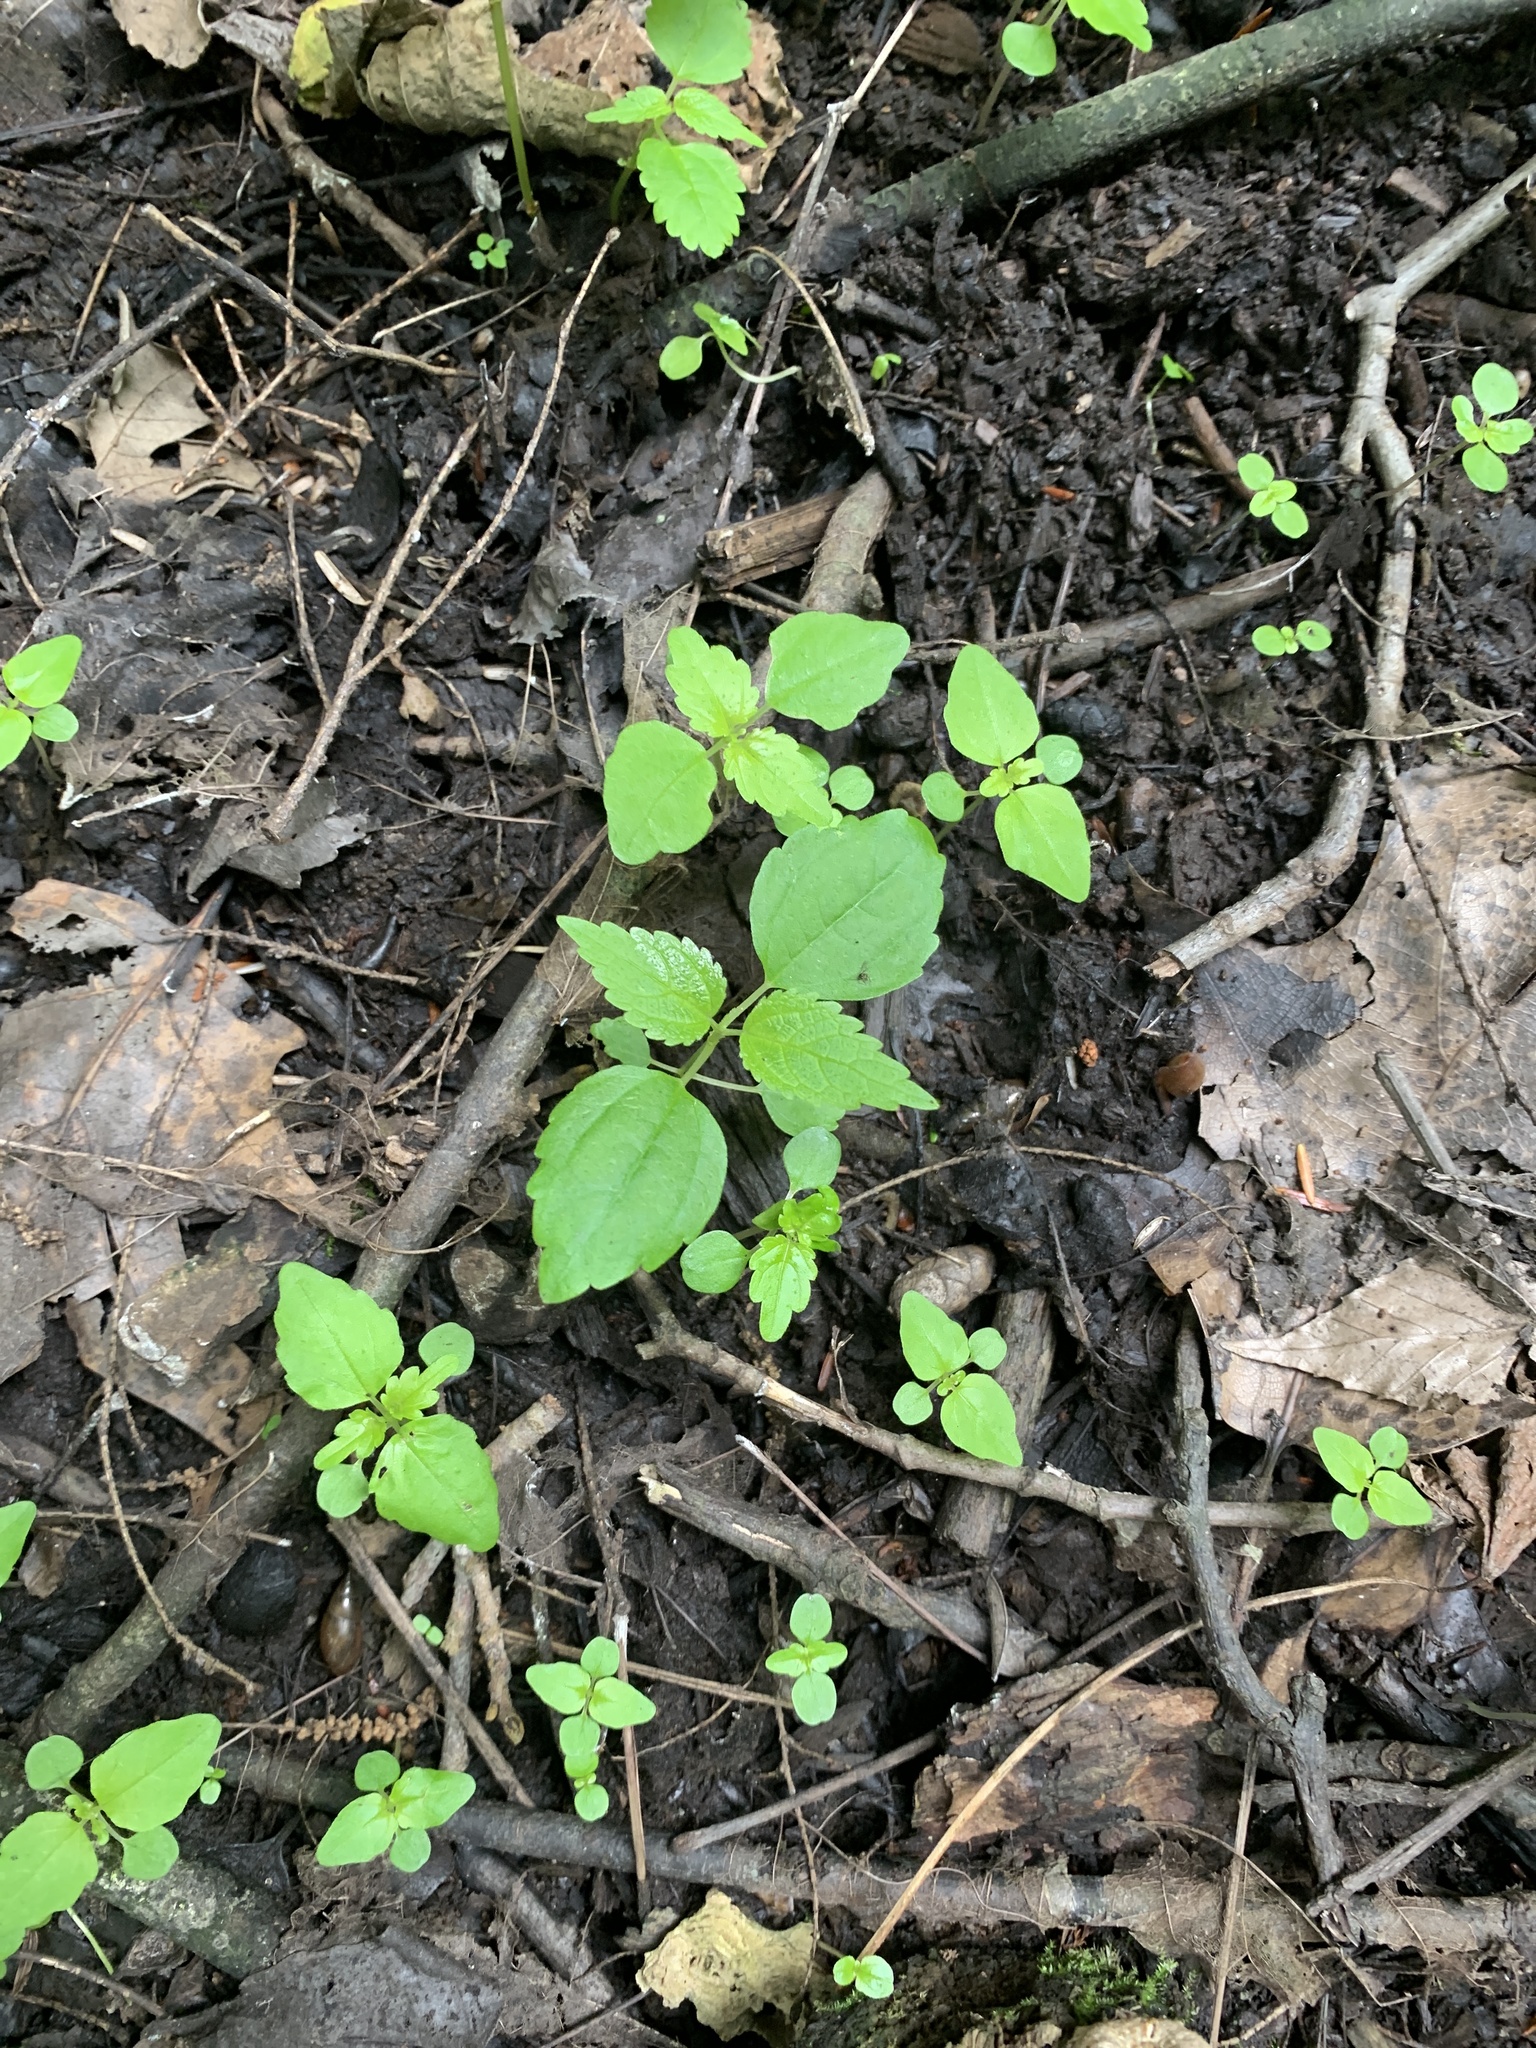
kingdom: Plantae
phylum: Tracheophyta
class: Magnoliopsida
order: Rosales
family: Urticaceae
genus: Pilea
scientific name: Pilea pumila
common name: Clearweed
